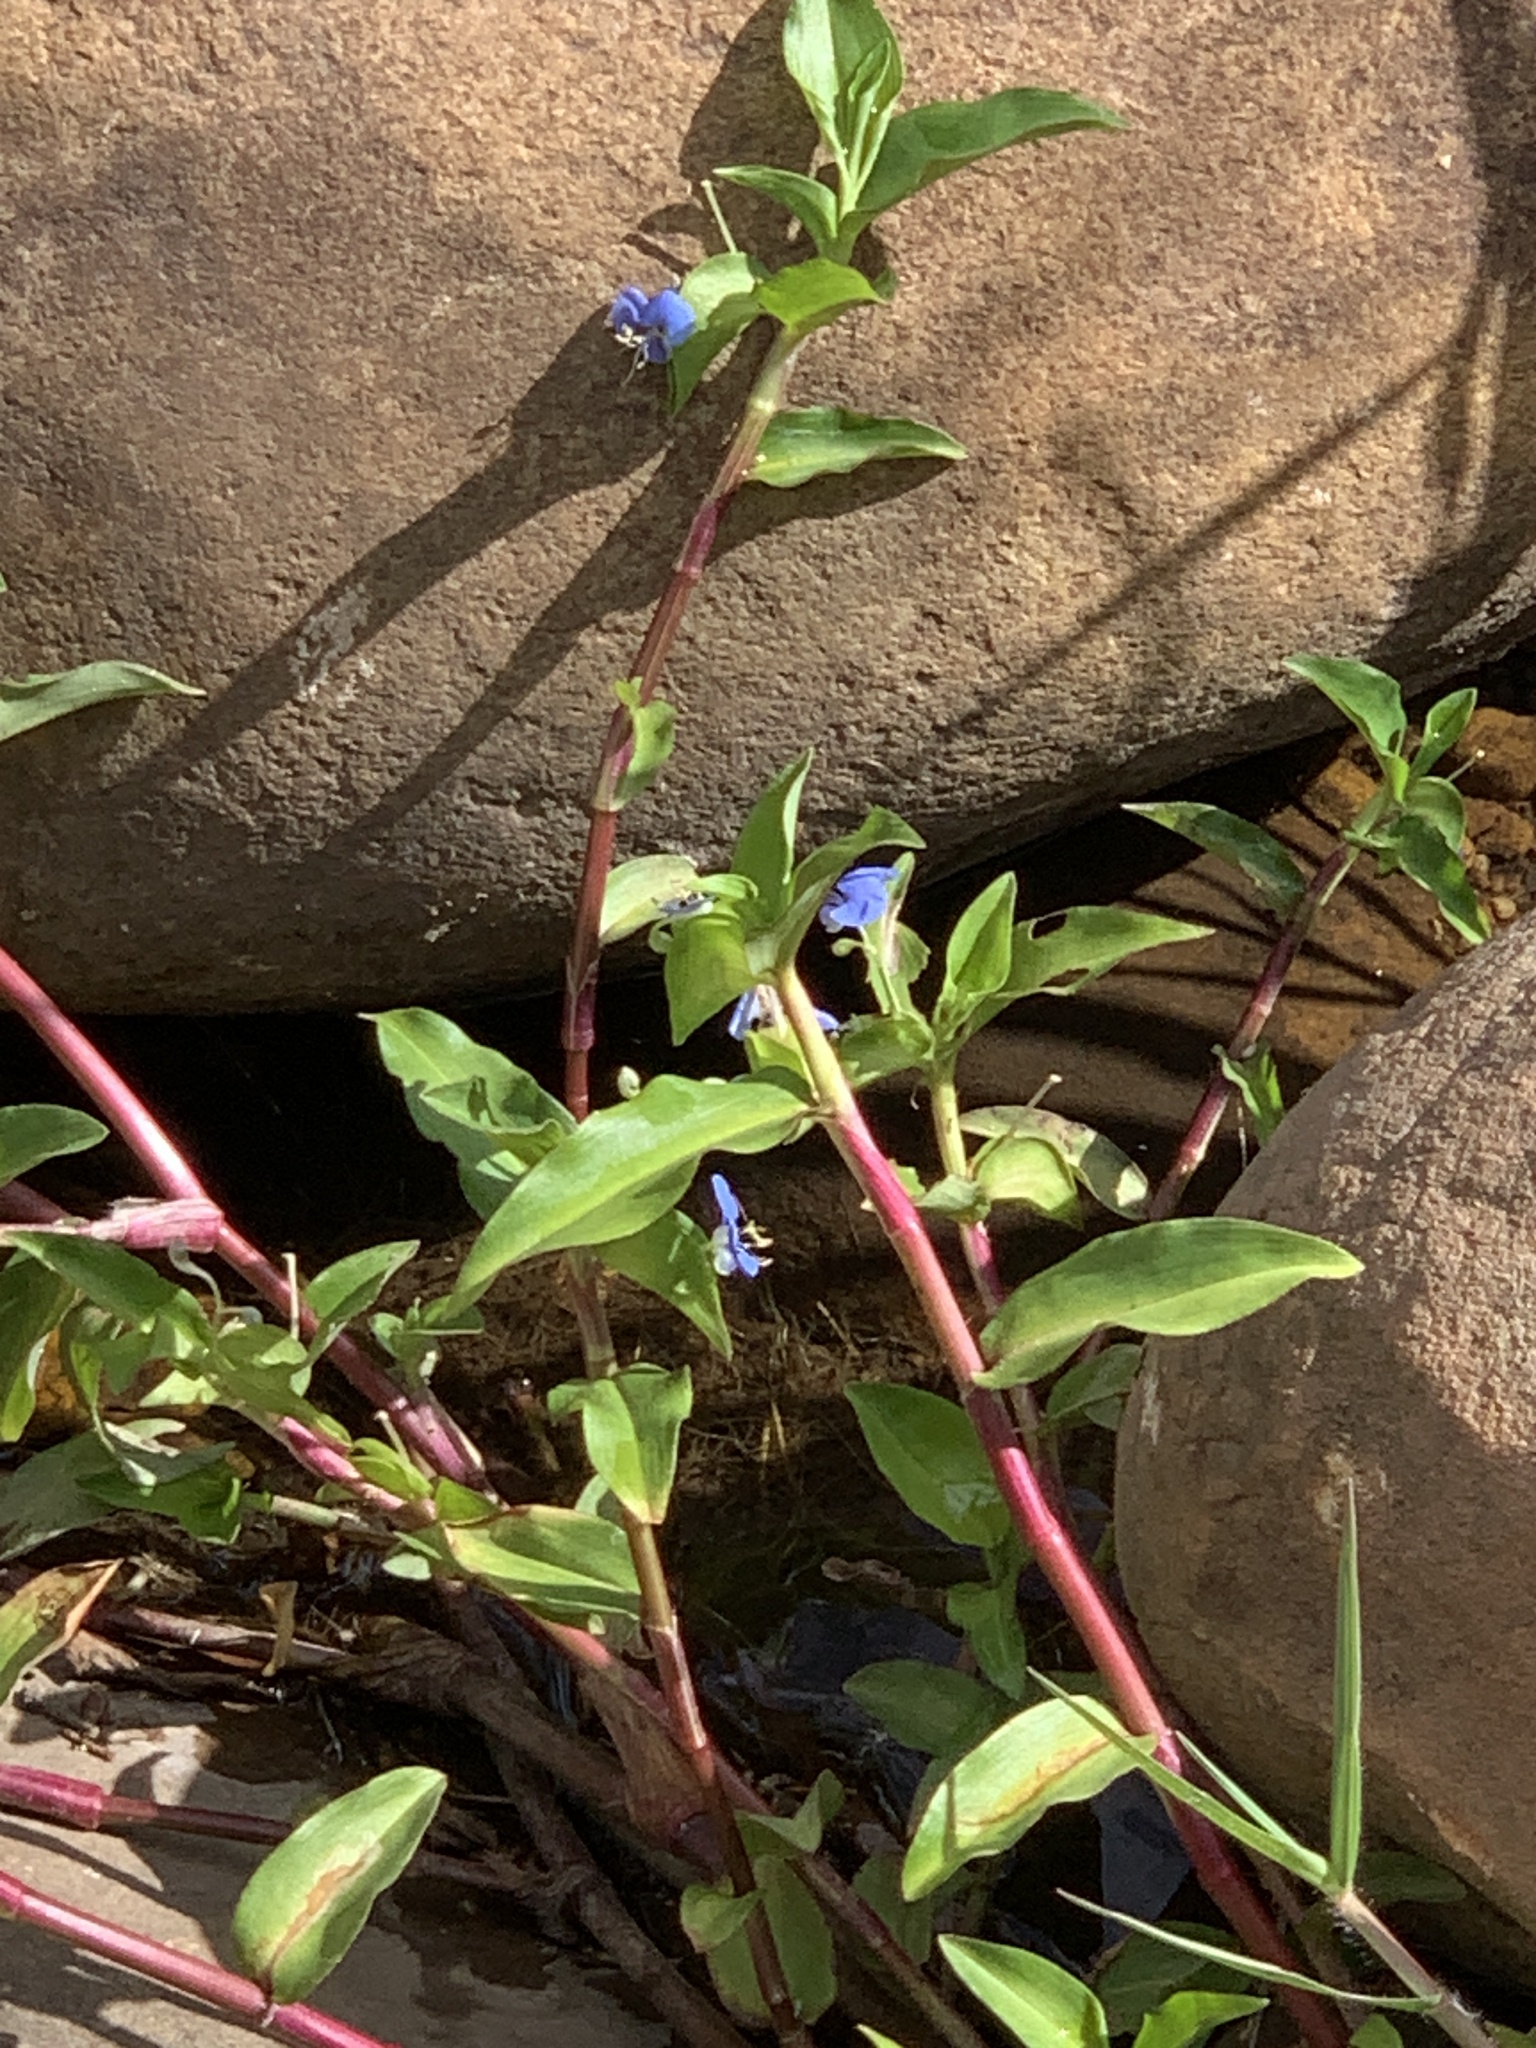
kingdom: Plantae
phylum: Tracheophyta
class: Liliopsida
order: Commelinales
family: Commelinaceae
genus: Commelina
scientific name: Commelina diffusa
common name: Climbing dayflower
